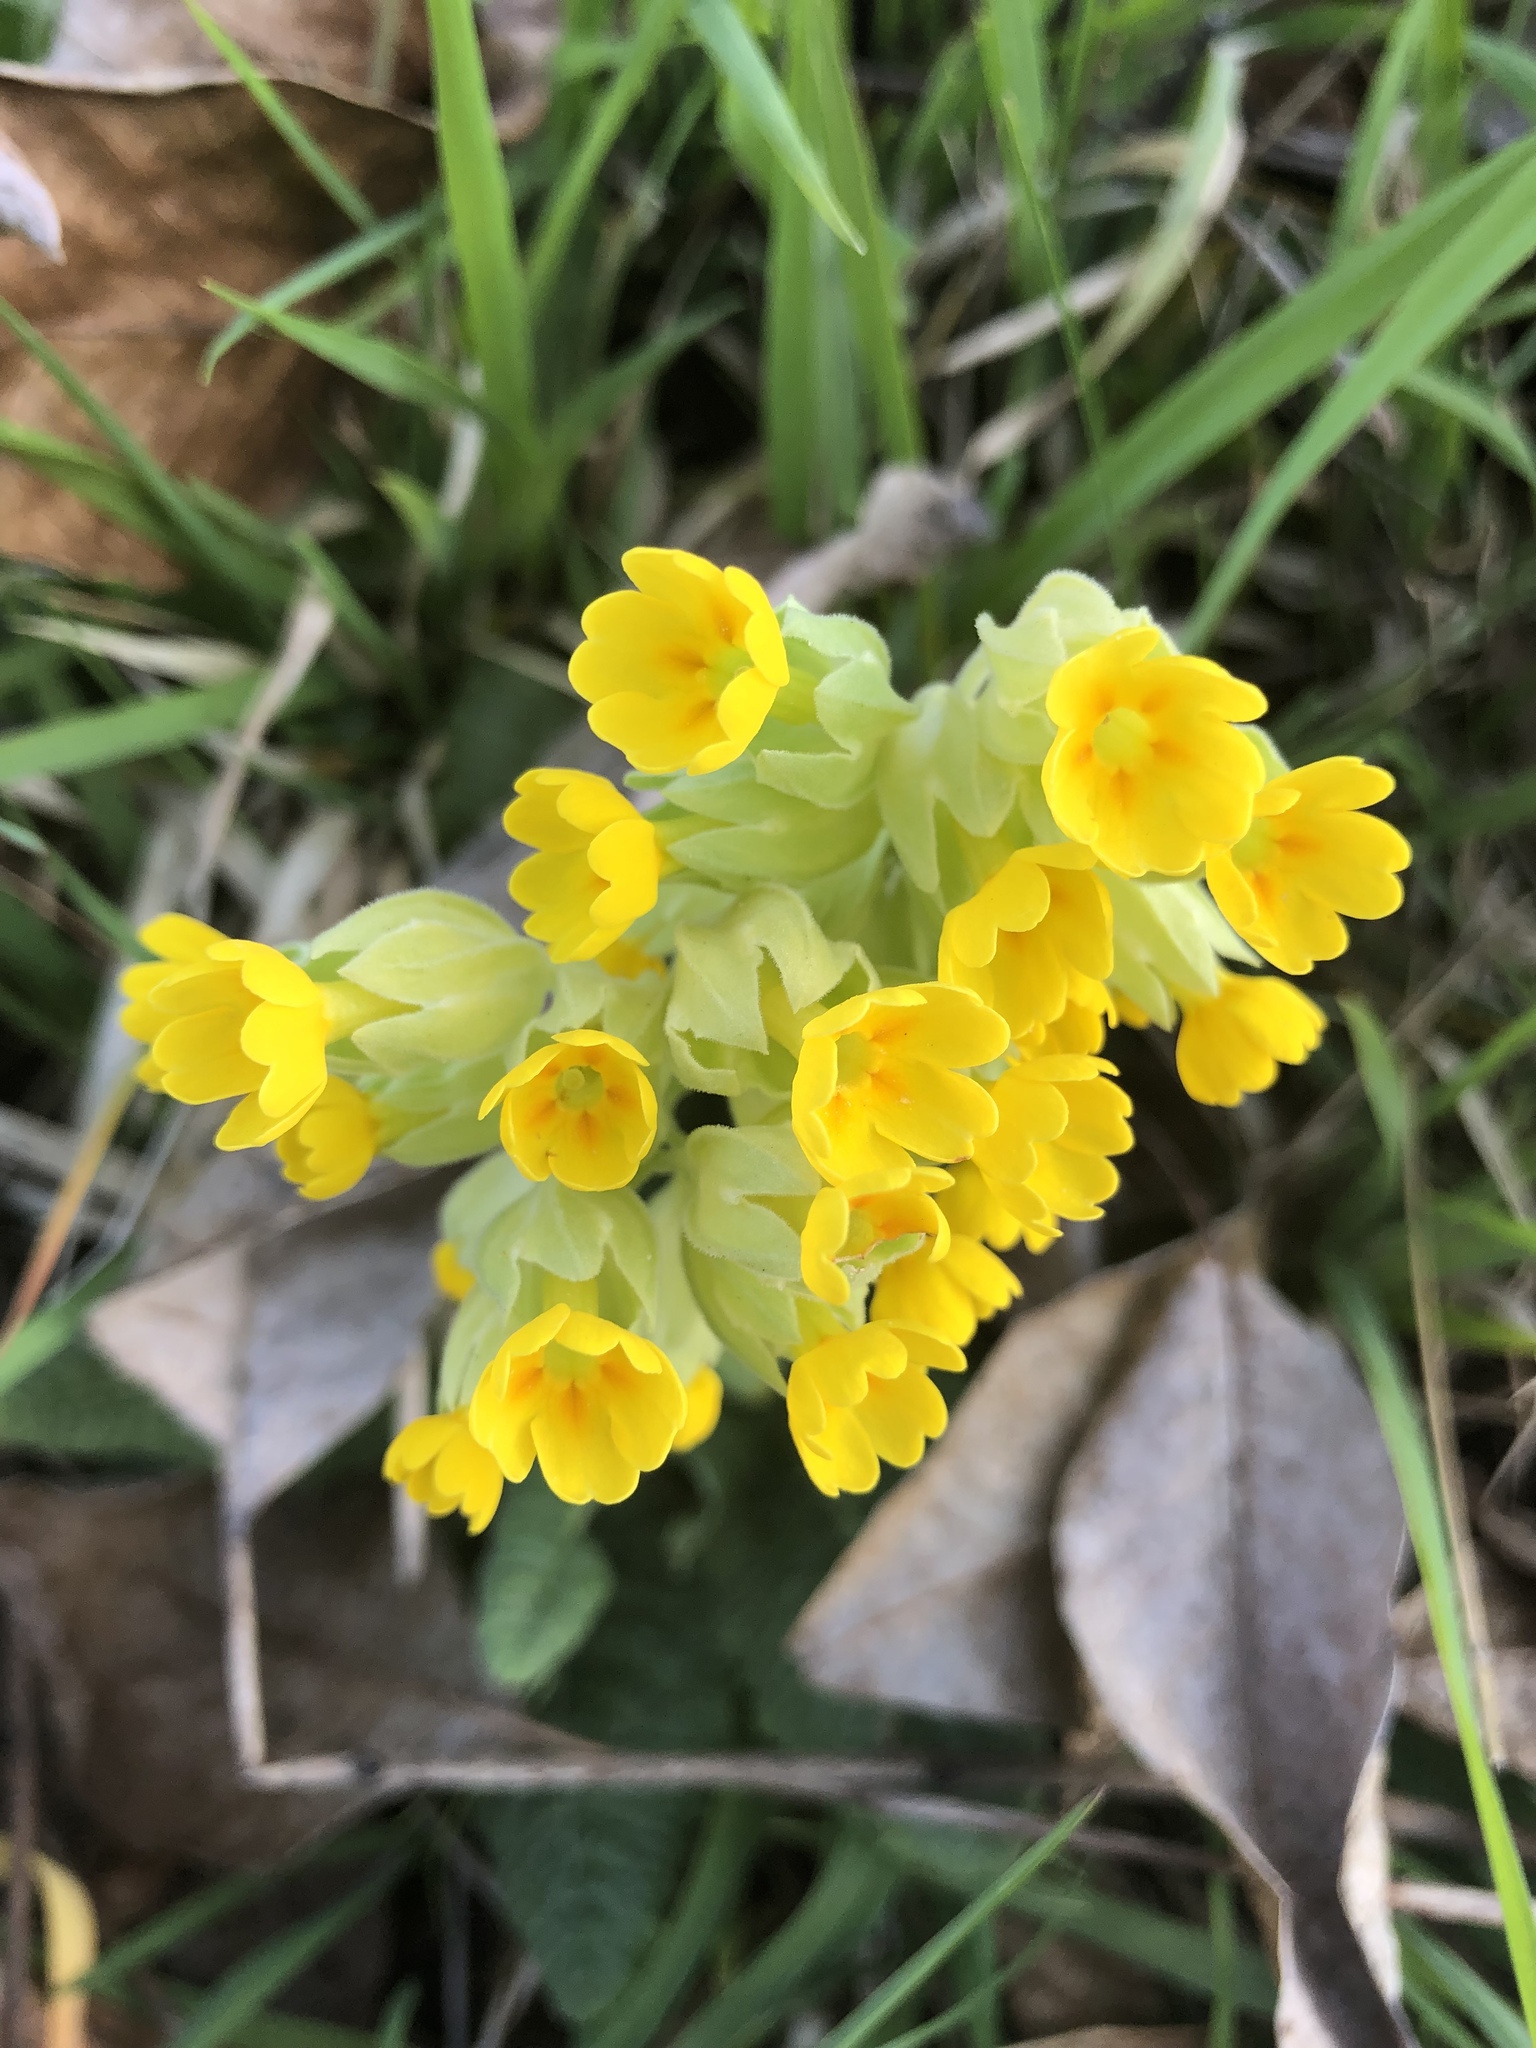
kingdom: Plantae
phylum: Tracheophyta
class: Magnoliopsida
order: Ericales
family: Primulaceae
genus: Primula
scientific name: Primula veris
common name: Cowslip
